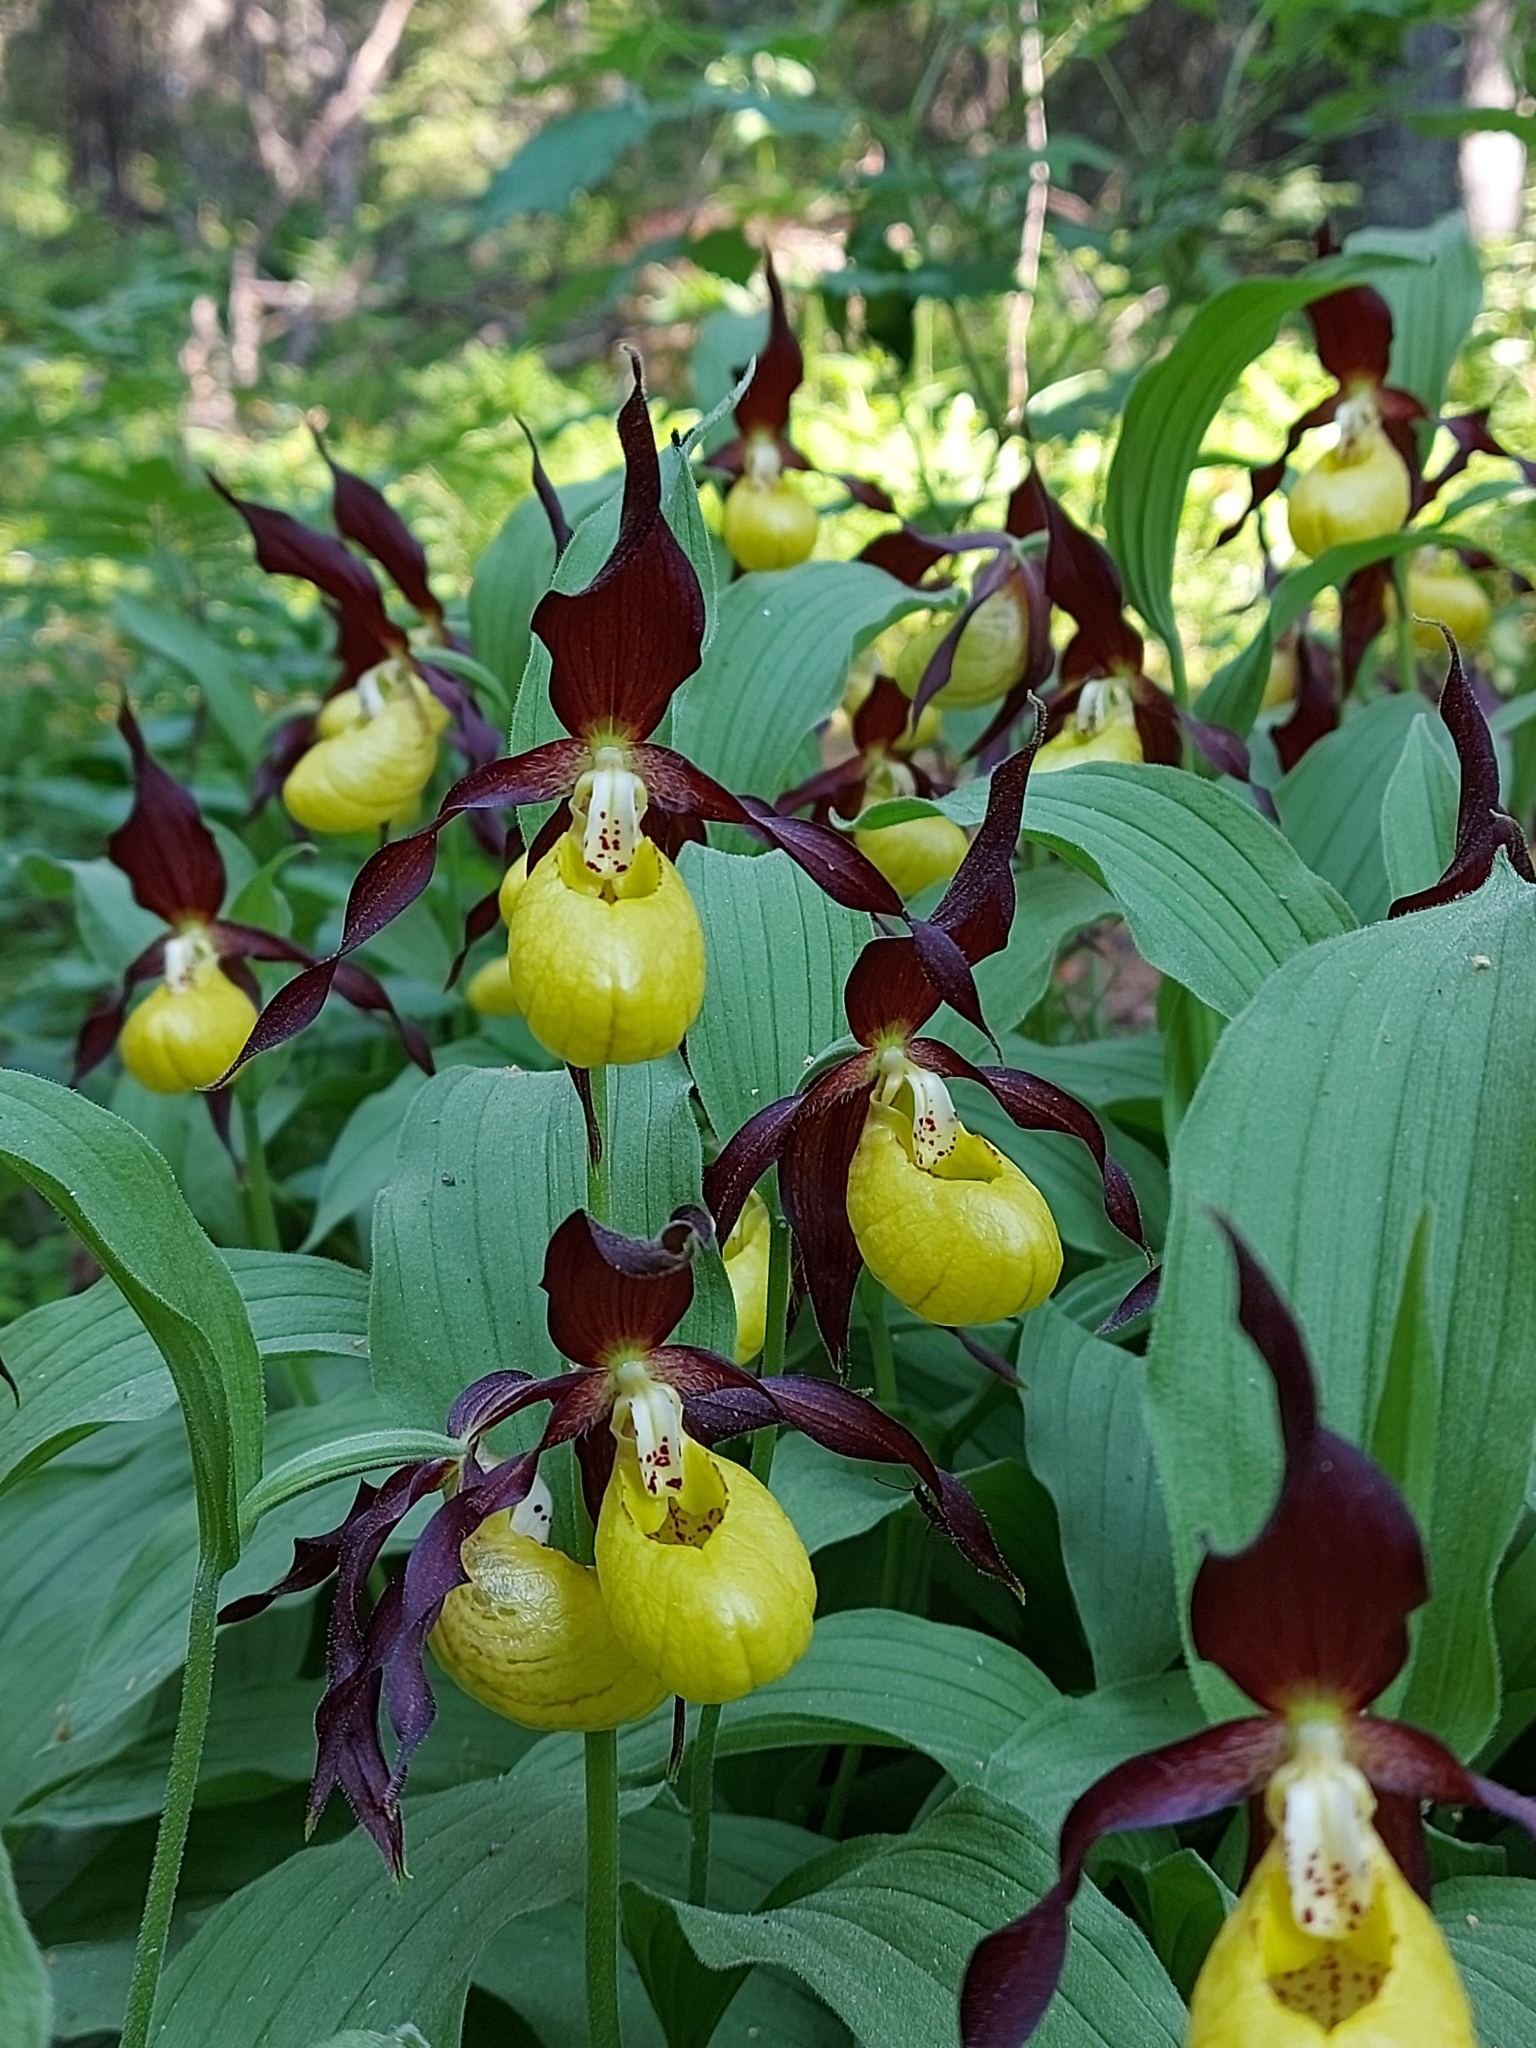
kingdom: Plantae
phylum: Tracheophyta
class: Liliopsida
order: Asparagales
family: Orchidaceae
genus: Cypripedium
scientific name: Cypripedium calceolus
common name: Lady's-slipper
